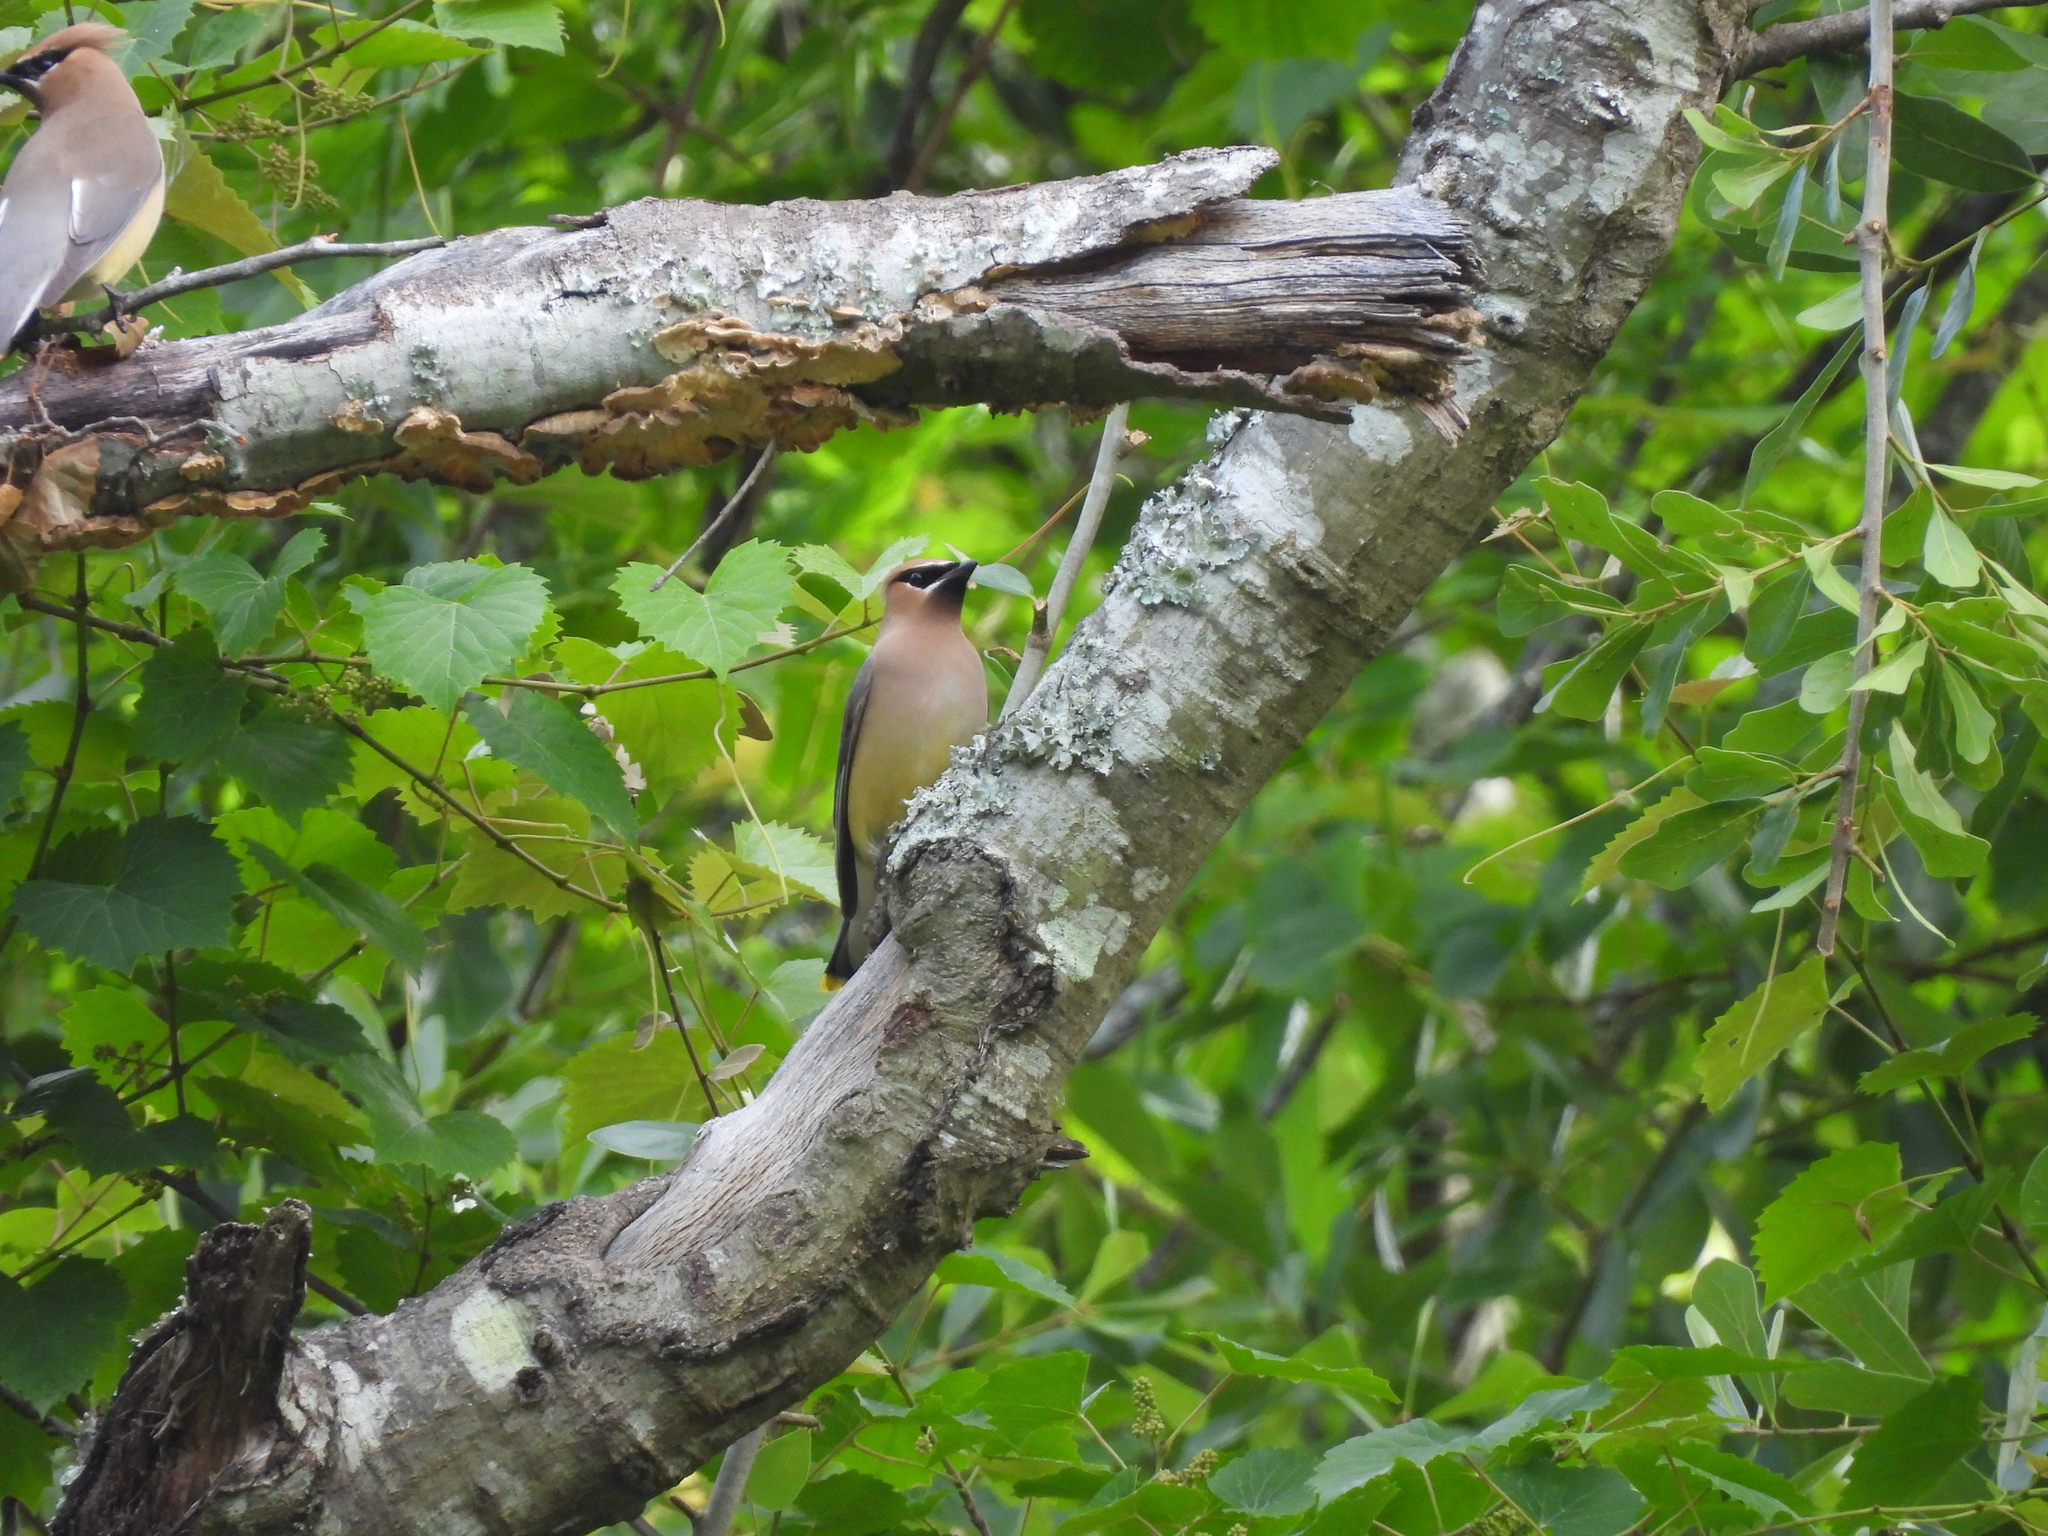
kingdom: Animalia
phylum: Chordata
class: Aves
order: Passeriformes
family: Bombycillidae
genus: Bombycilla
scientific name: Bombycilla cedrorum
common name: Cedar waxwing
